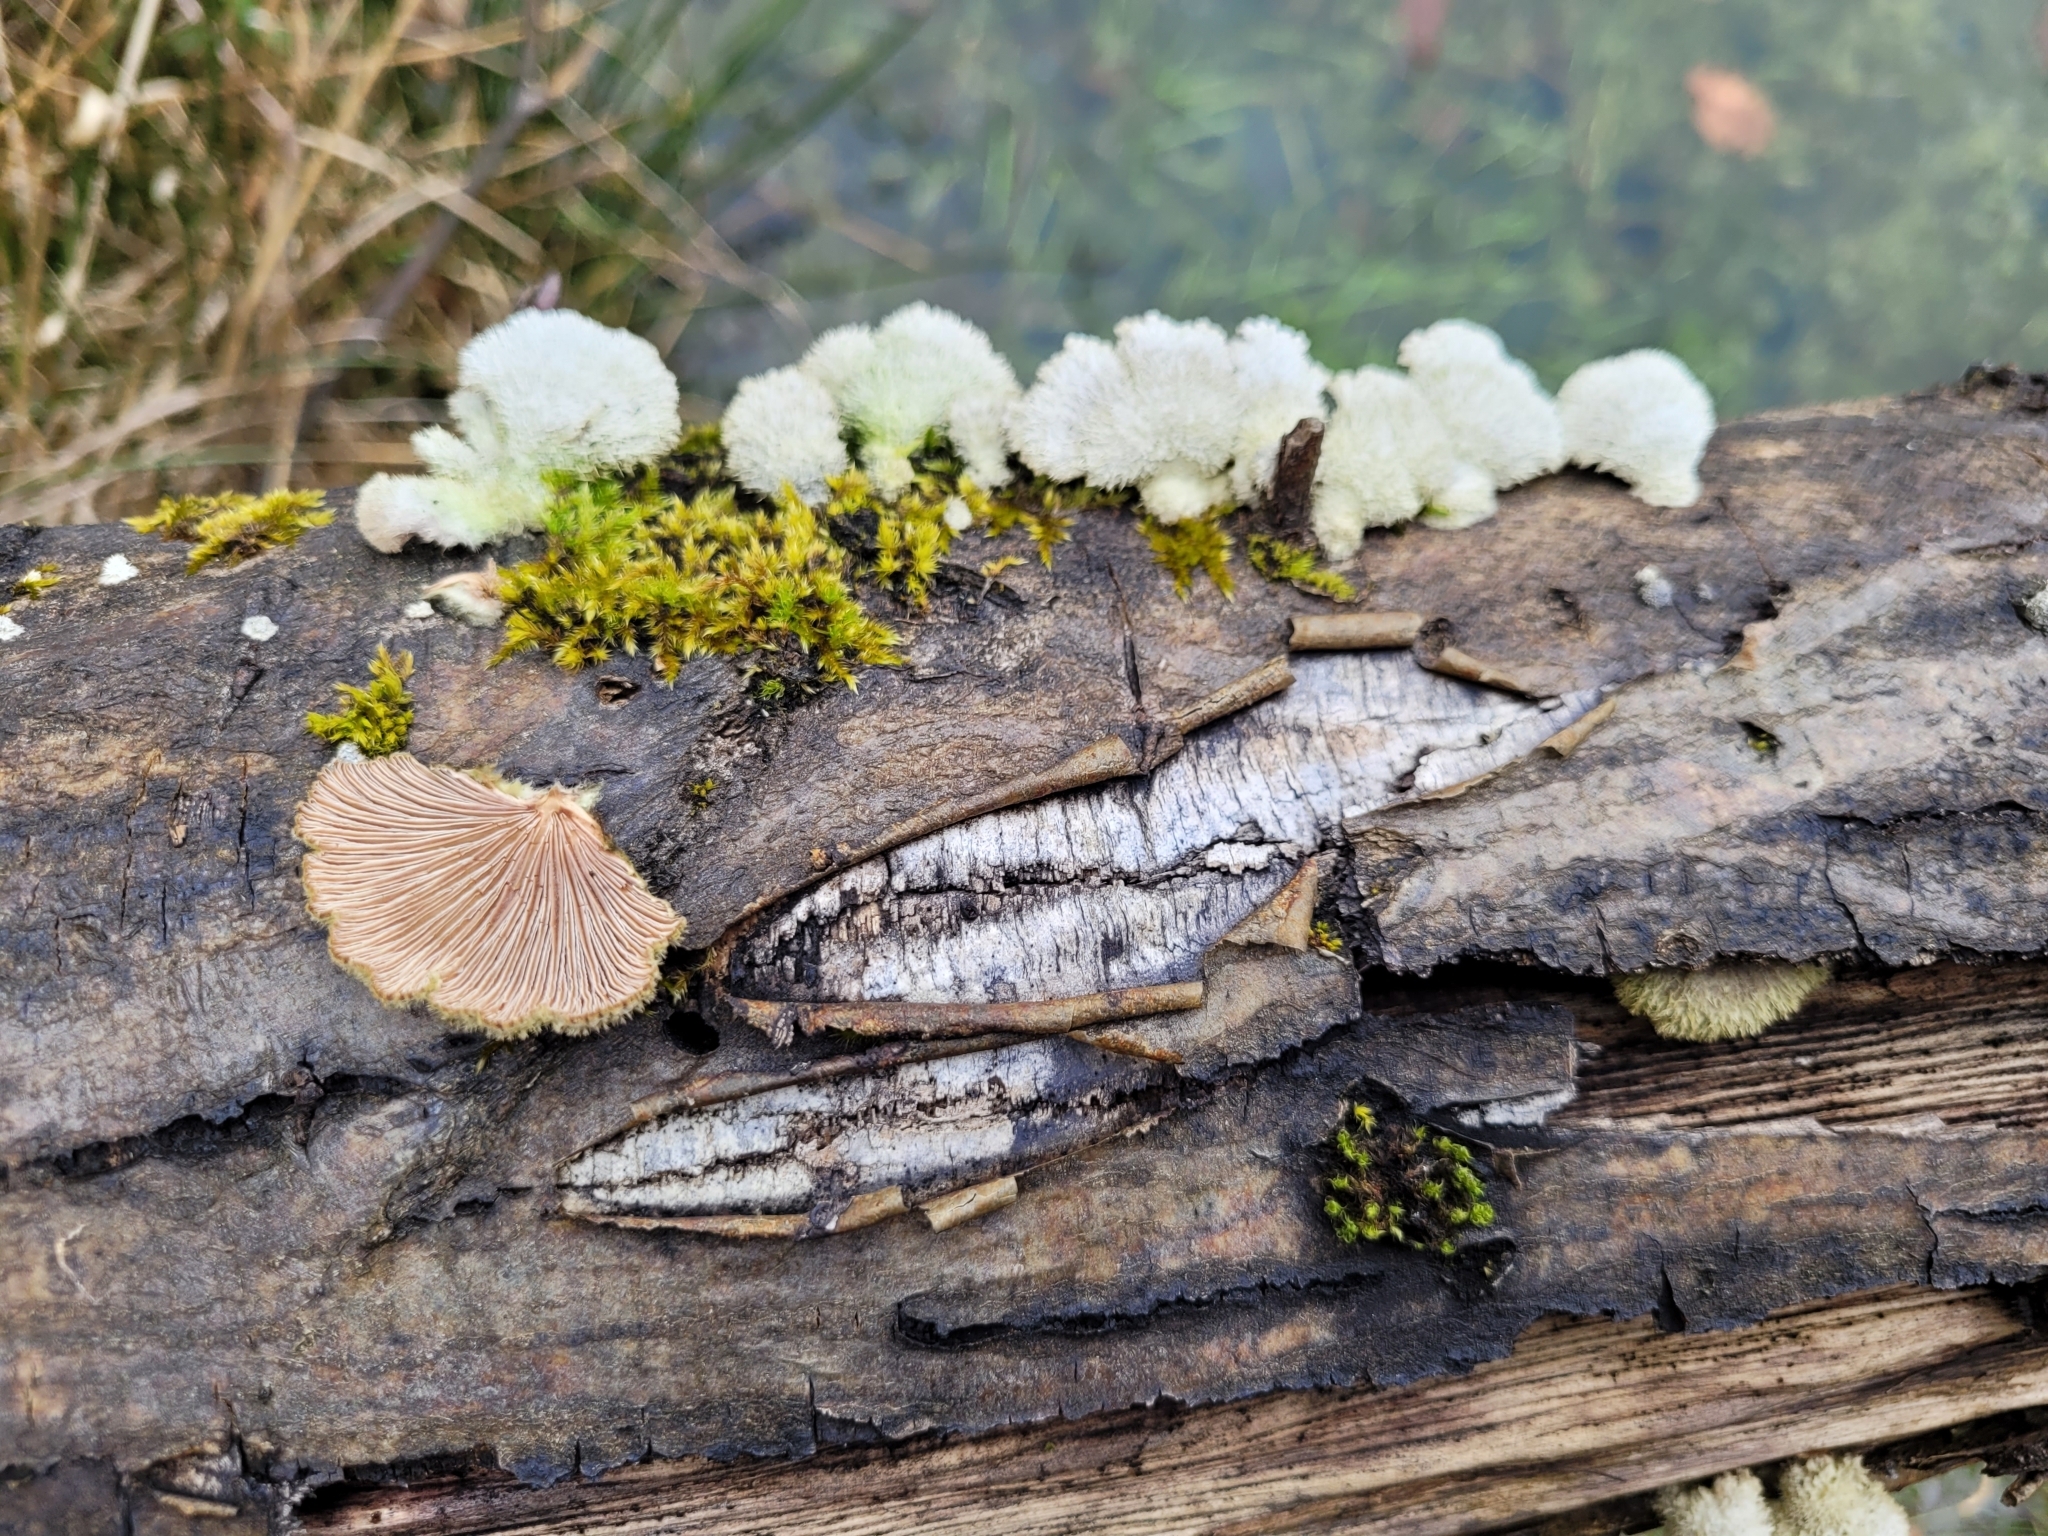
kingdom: Fungi
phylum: Basidiomycota
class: Agaricomycetes
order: Agaricales
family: Schizophyllaceae
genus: Schizophyllum
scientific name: Schizophyllum commune
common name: Common porecrust
